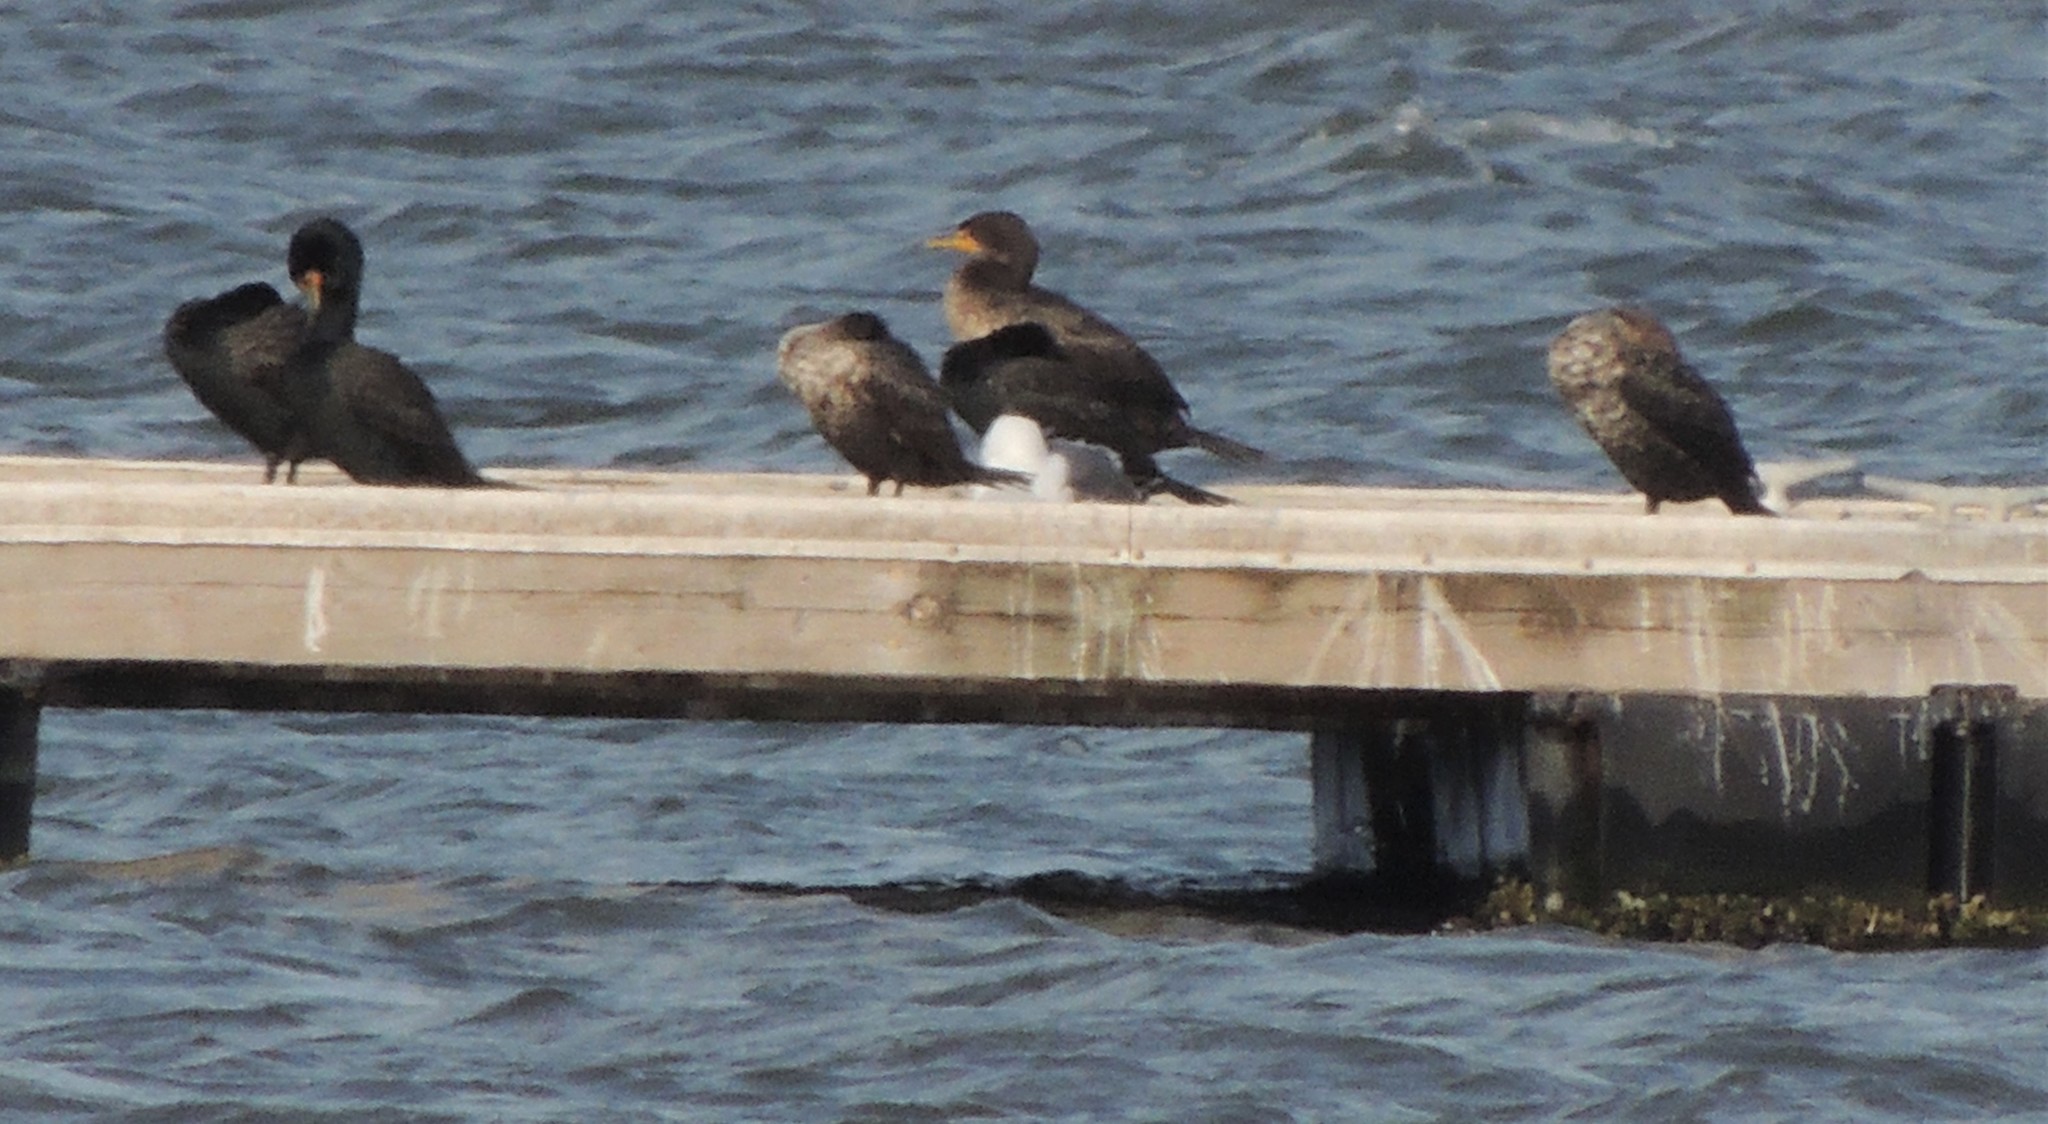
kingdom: Animalia
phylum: Chordata
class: Aves
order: Suliformes
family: Phalacrocoracidae
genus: Phalacrocorax
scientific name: Phalacrocorax auritus
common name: Double-crested cormorant
